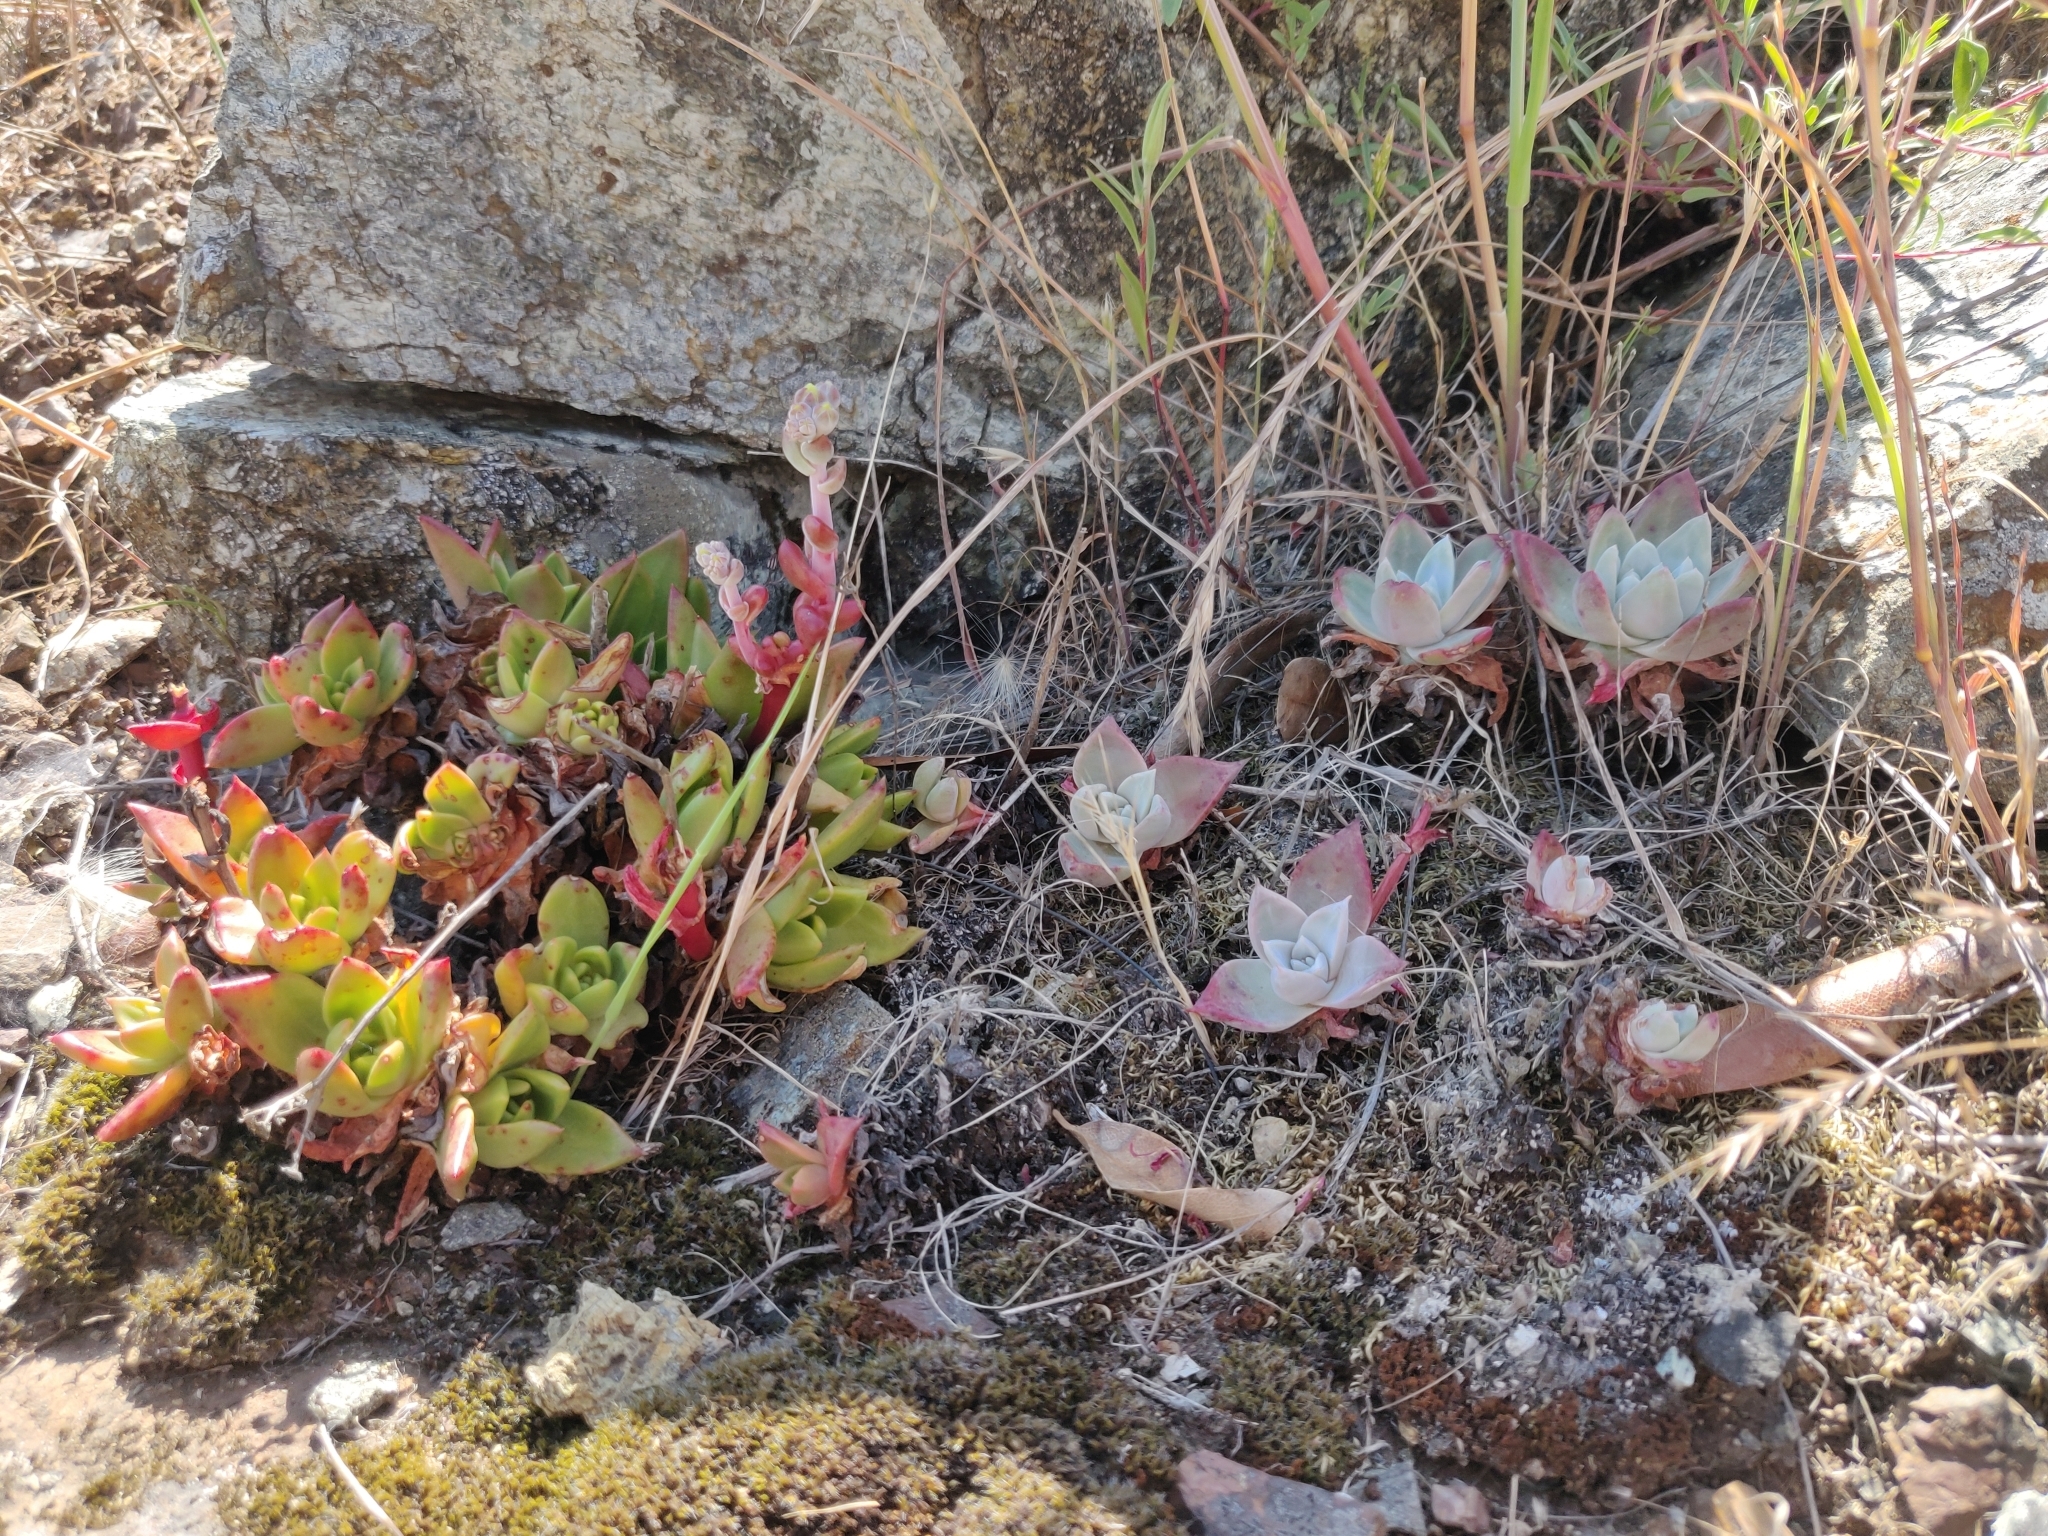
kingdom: Plantae
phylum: Tracheophyta
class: Magnoliopsida
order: Saxifragales
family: Crassulaceae
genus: Dudleya
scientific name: Dudleya farinosa
